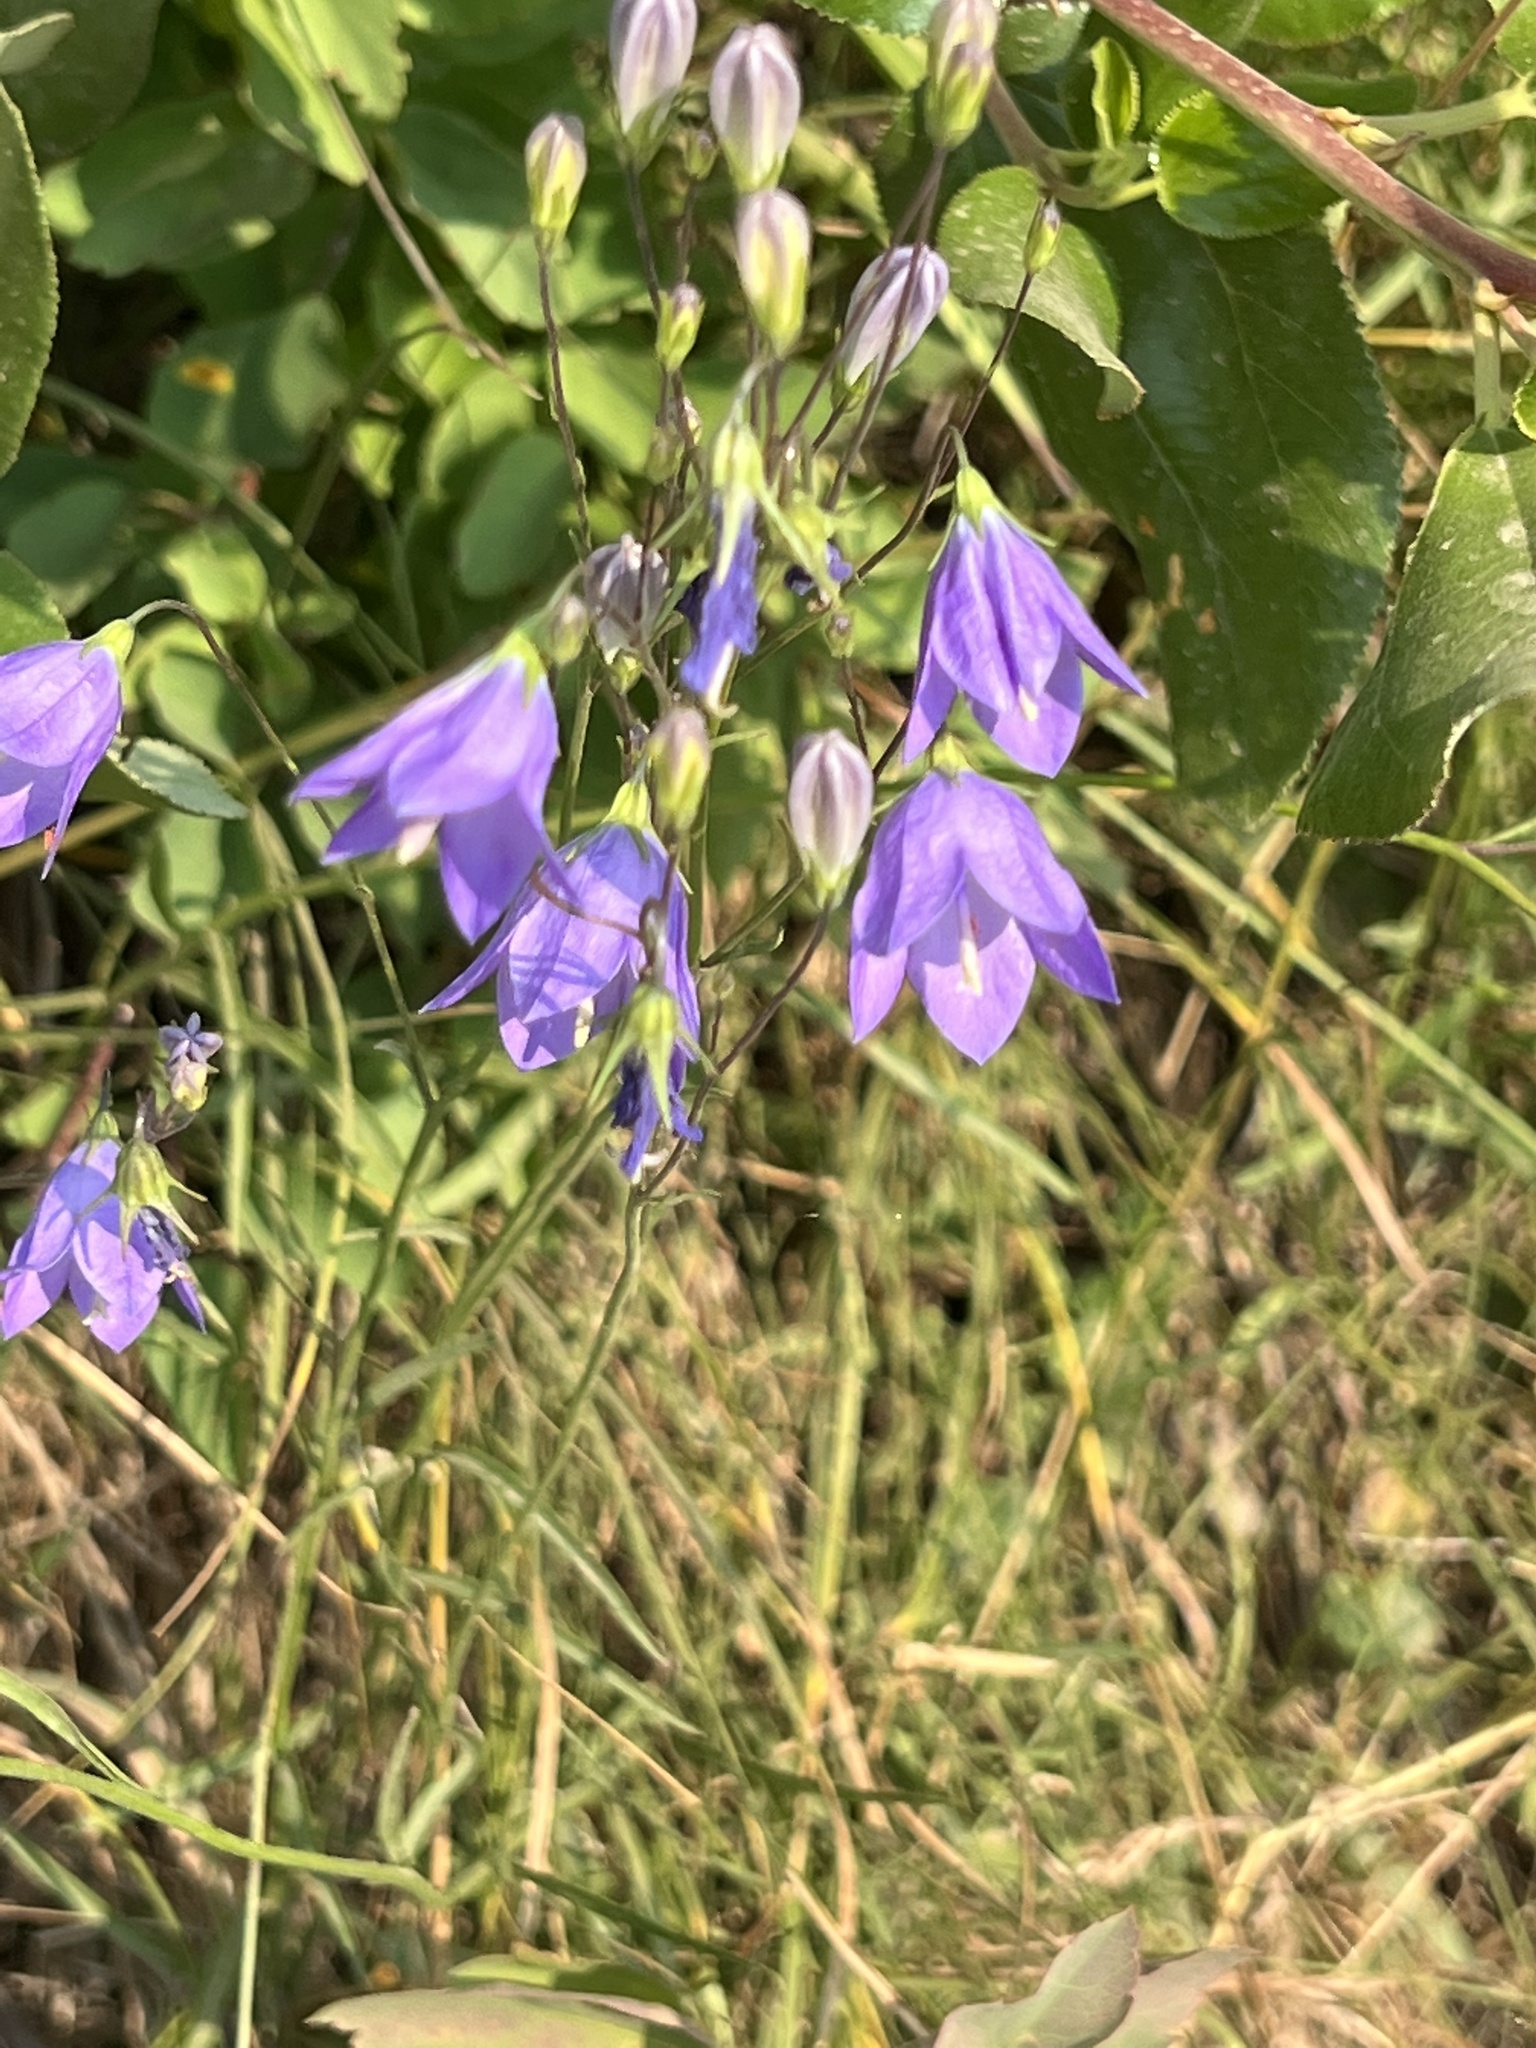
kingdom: Plantae
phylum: Tracheophyta
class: Magnoliopsida
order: Asterales
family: Campanulaceae
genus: Campanula
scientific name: Campanula
